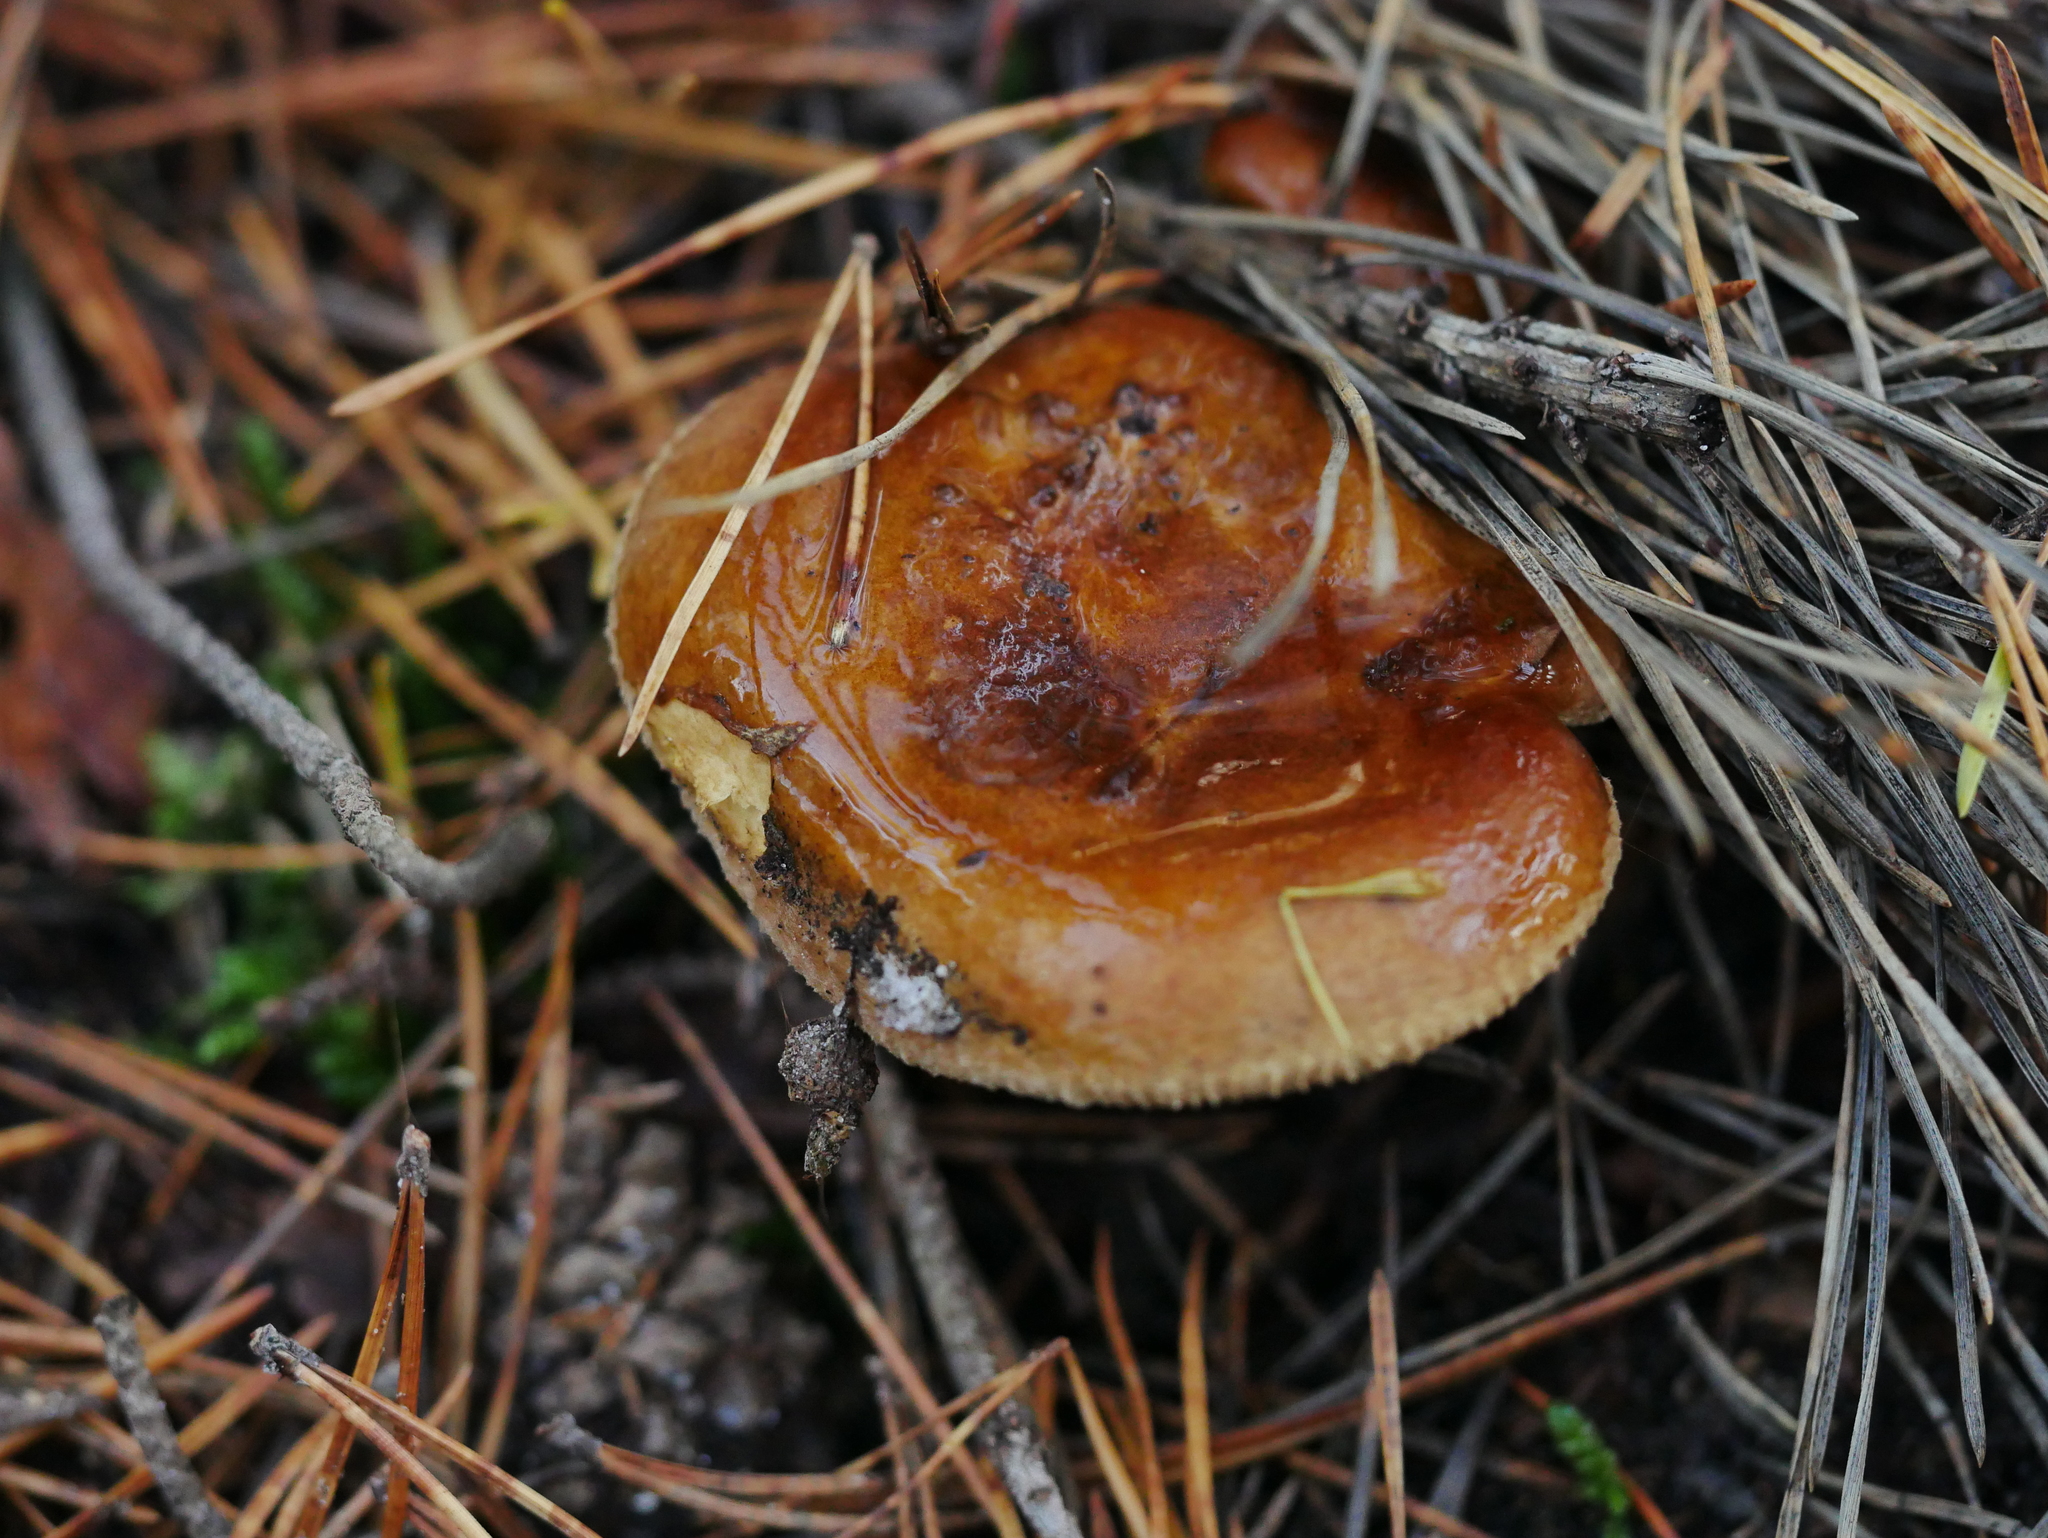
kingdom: Fungi
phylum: Basidiomycota
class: Agaricomycetes
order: Boletales
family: Paxillaceae
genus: Paxillus
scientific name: Paxillus involutus
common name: Brown roll rim
